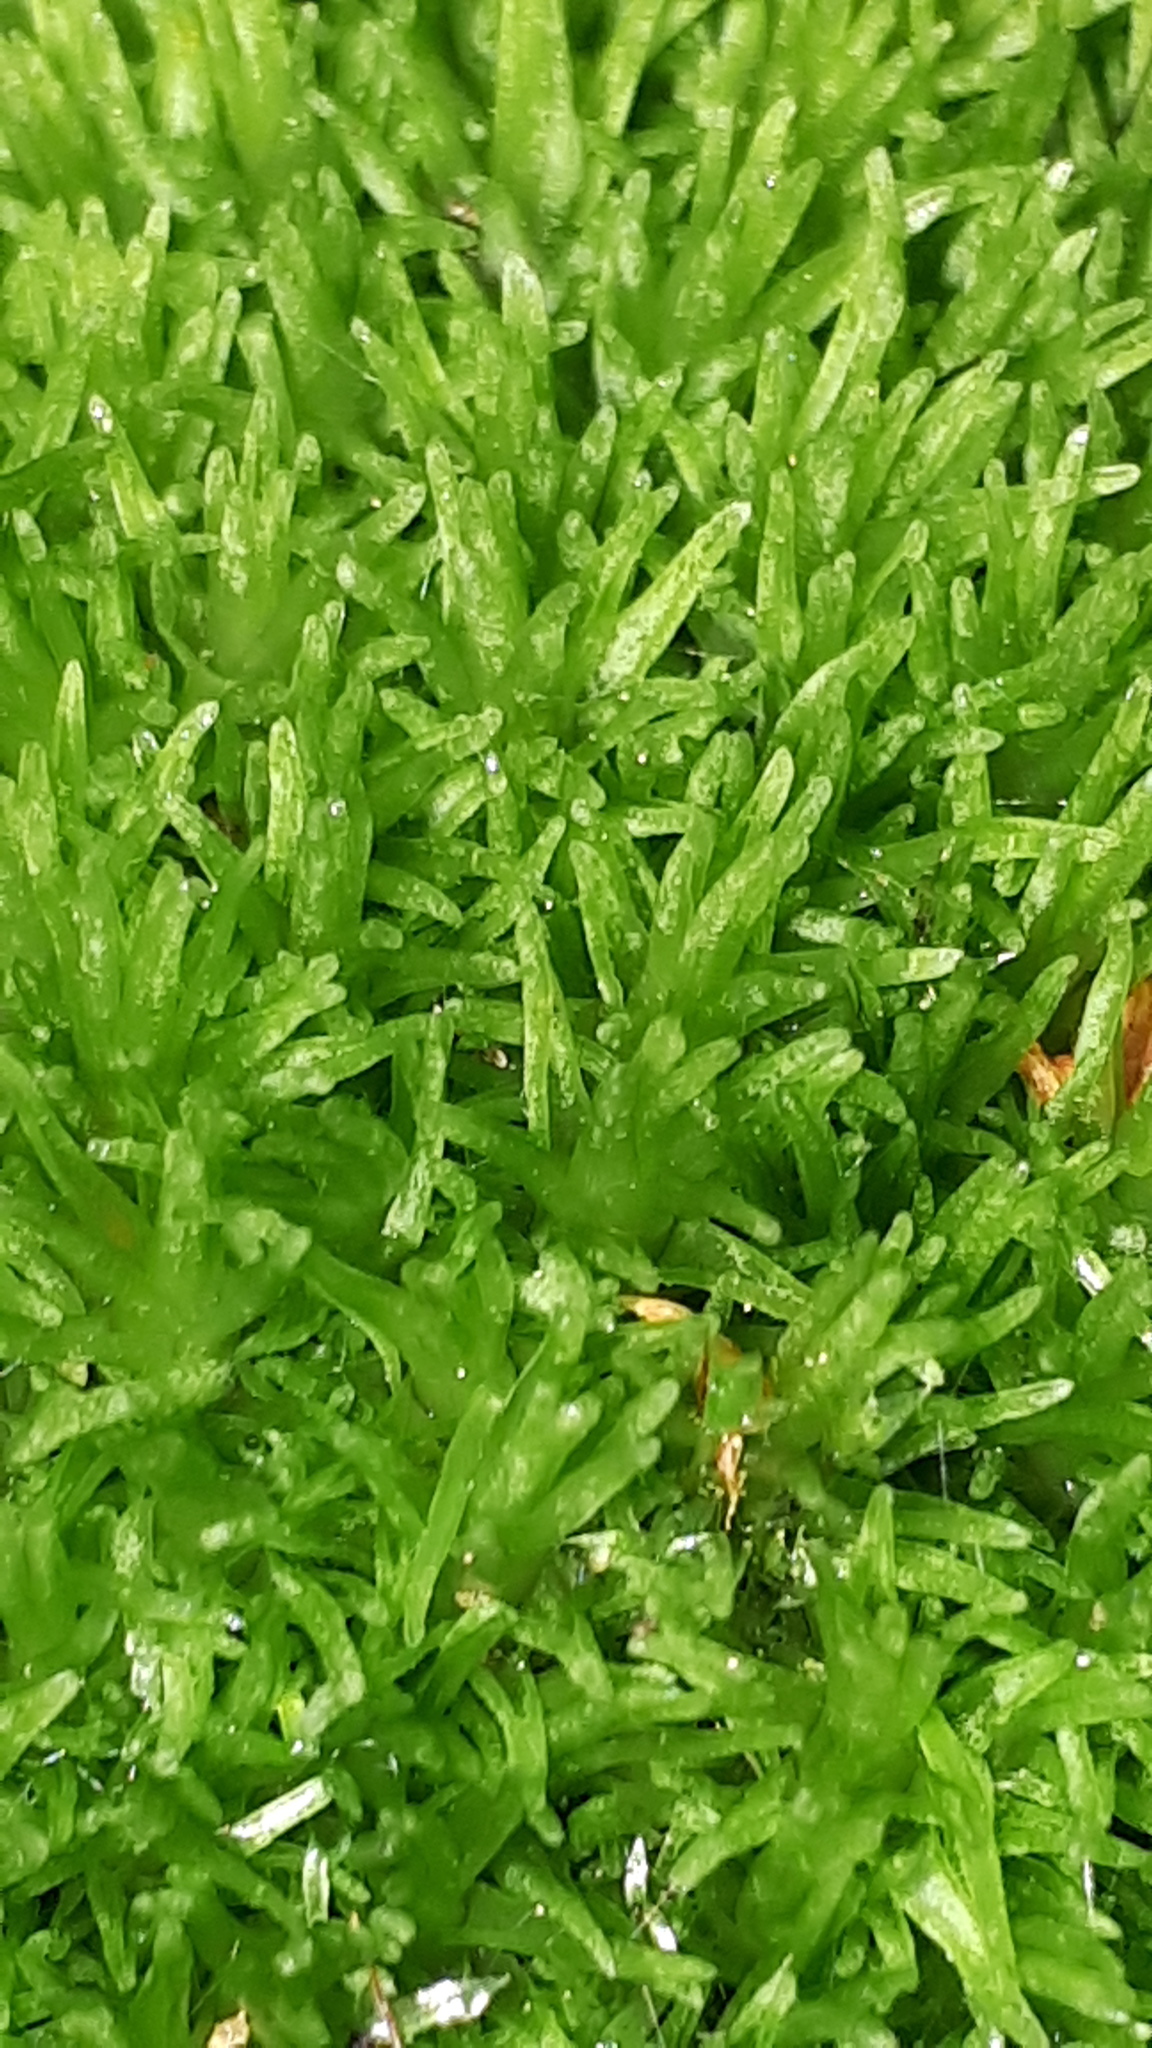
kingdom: Plantae
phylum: Bryophyta
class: Bryopsida
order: Dicranales
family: Leucobryaceae
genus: Leucobryum
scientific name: Leucobryum glaucum
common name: Large white-moss
